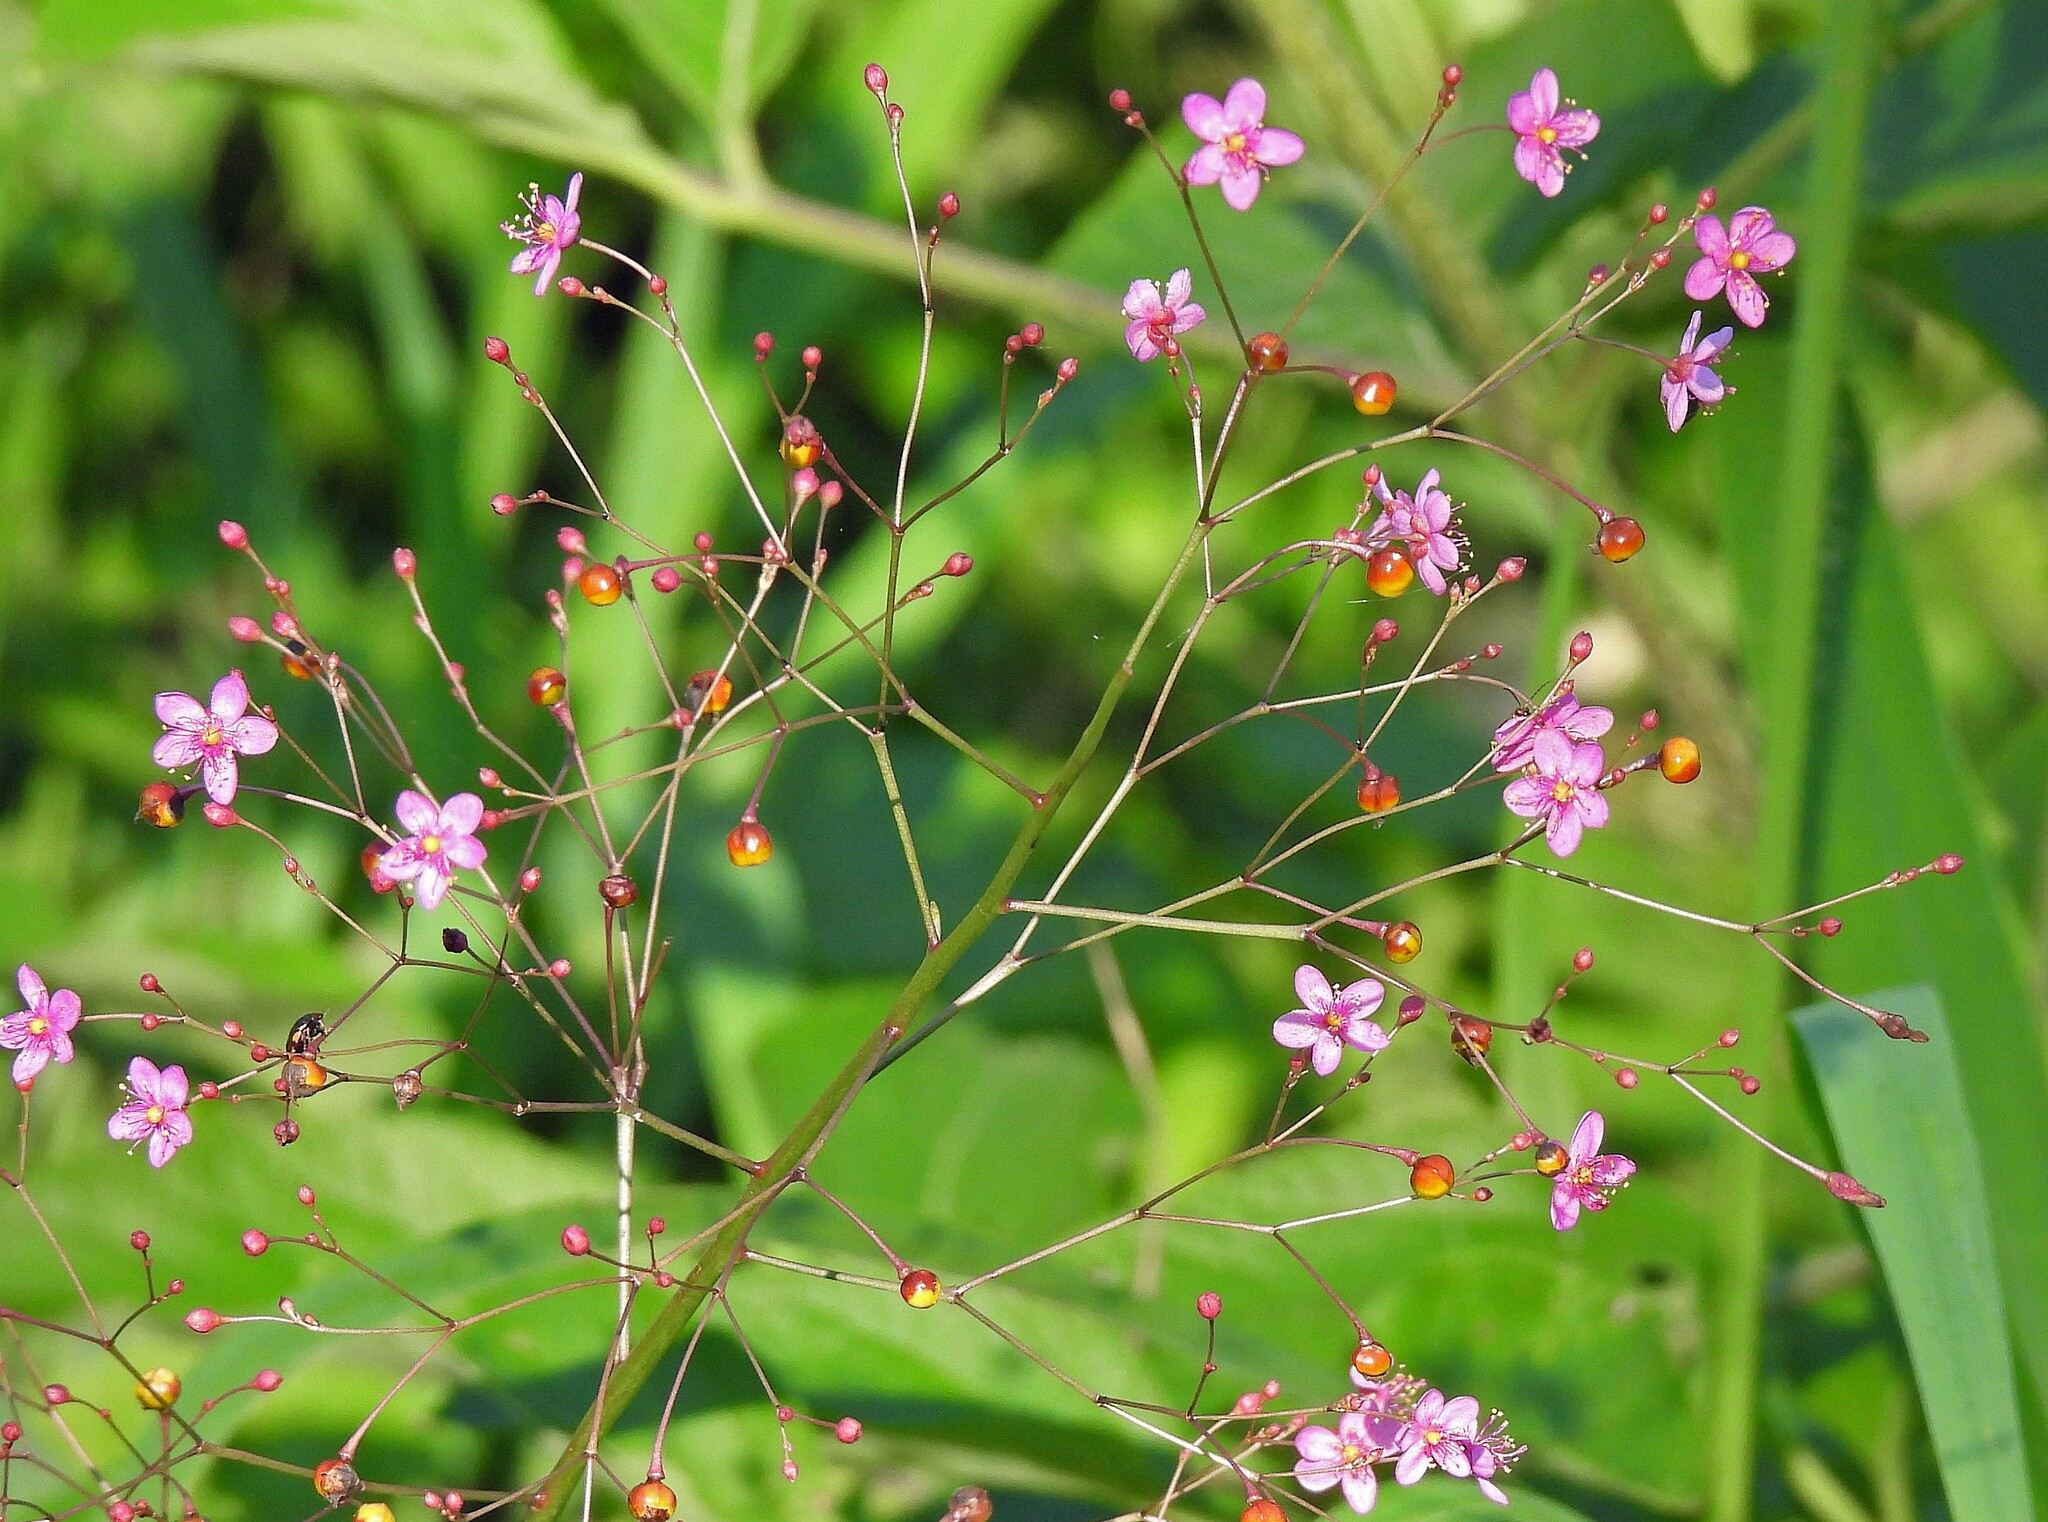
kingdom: Plantae
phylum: Tracheophyta
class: Magnoliopsida
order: Caryophyllales
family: Talinaceae
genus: Talinum
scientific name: Talinum paniculatum
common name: Jewels of opar
